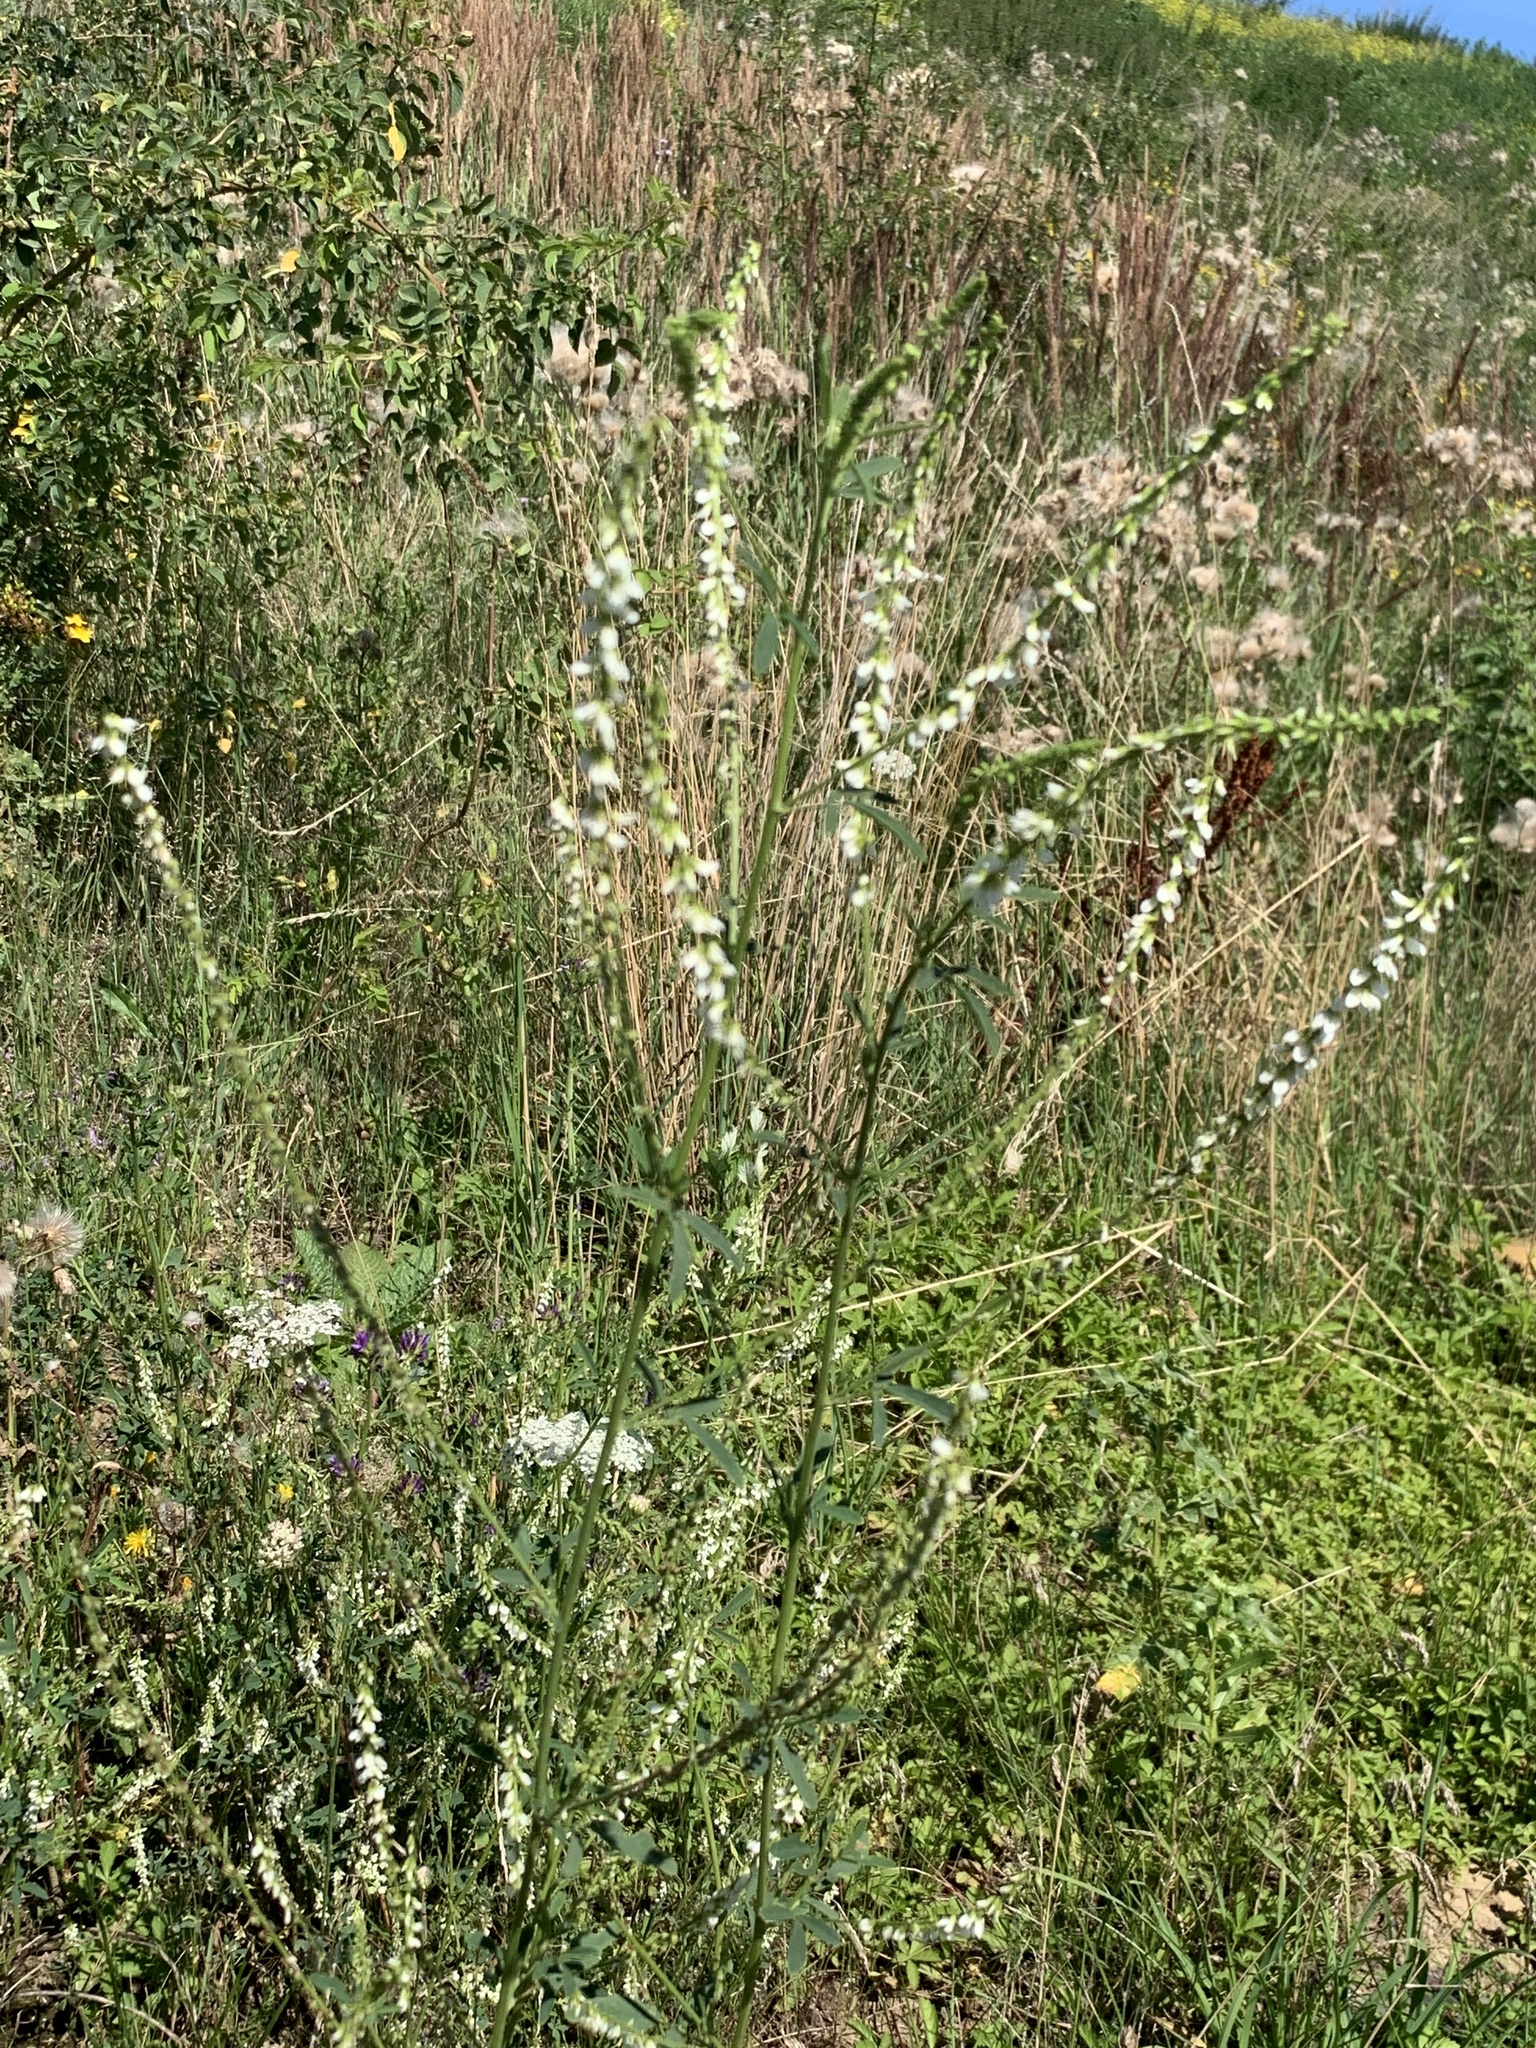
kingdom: Plantae
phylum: Tracheophyta
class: Magnoliopsida
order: Fabales
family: Fabaceae
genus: Melilotus
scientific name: Melilotus albus
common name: White melilot
